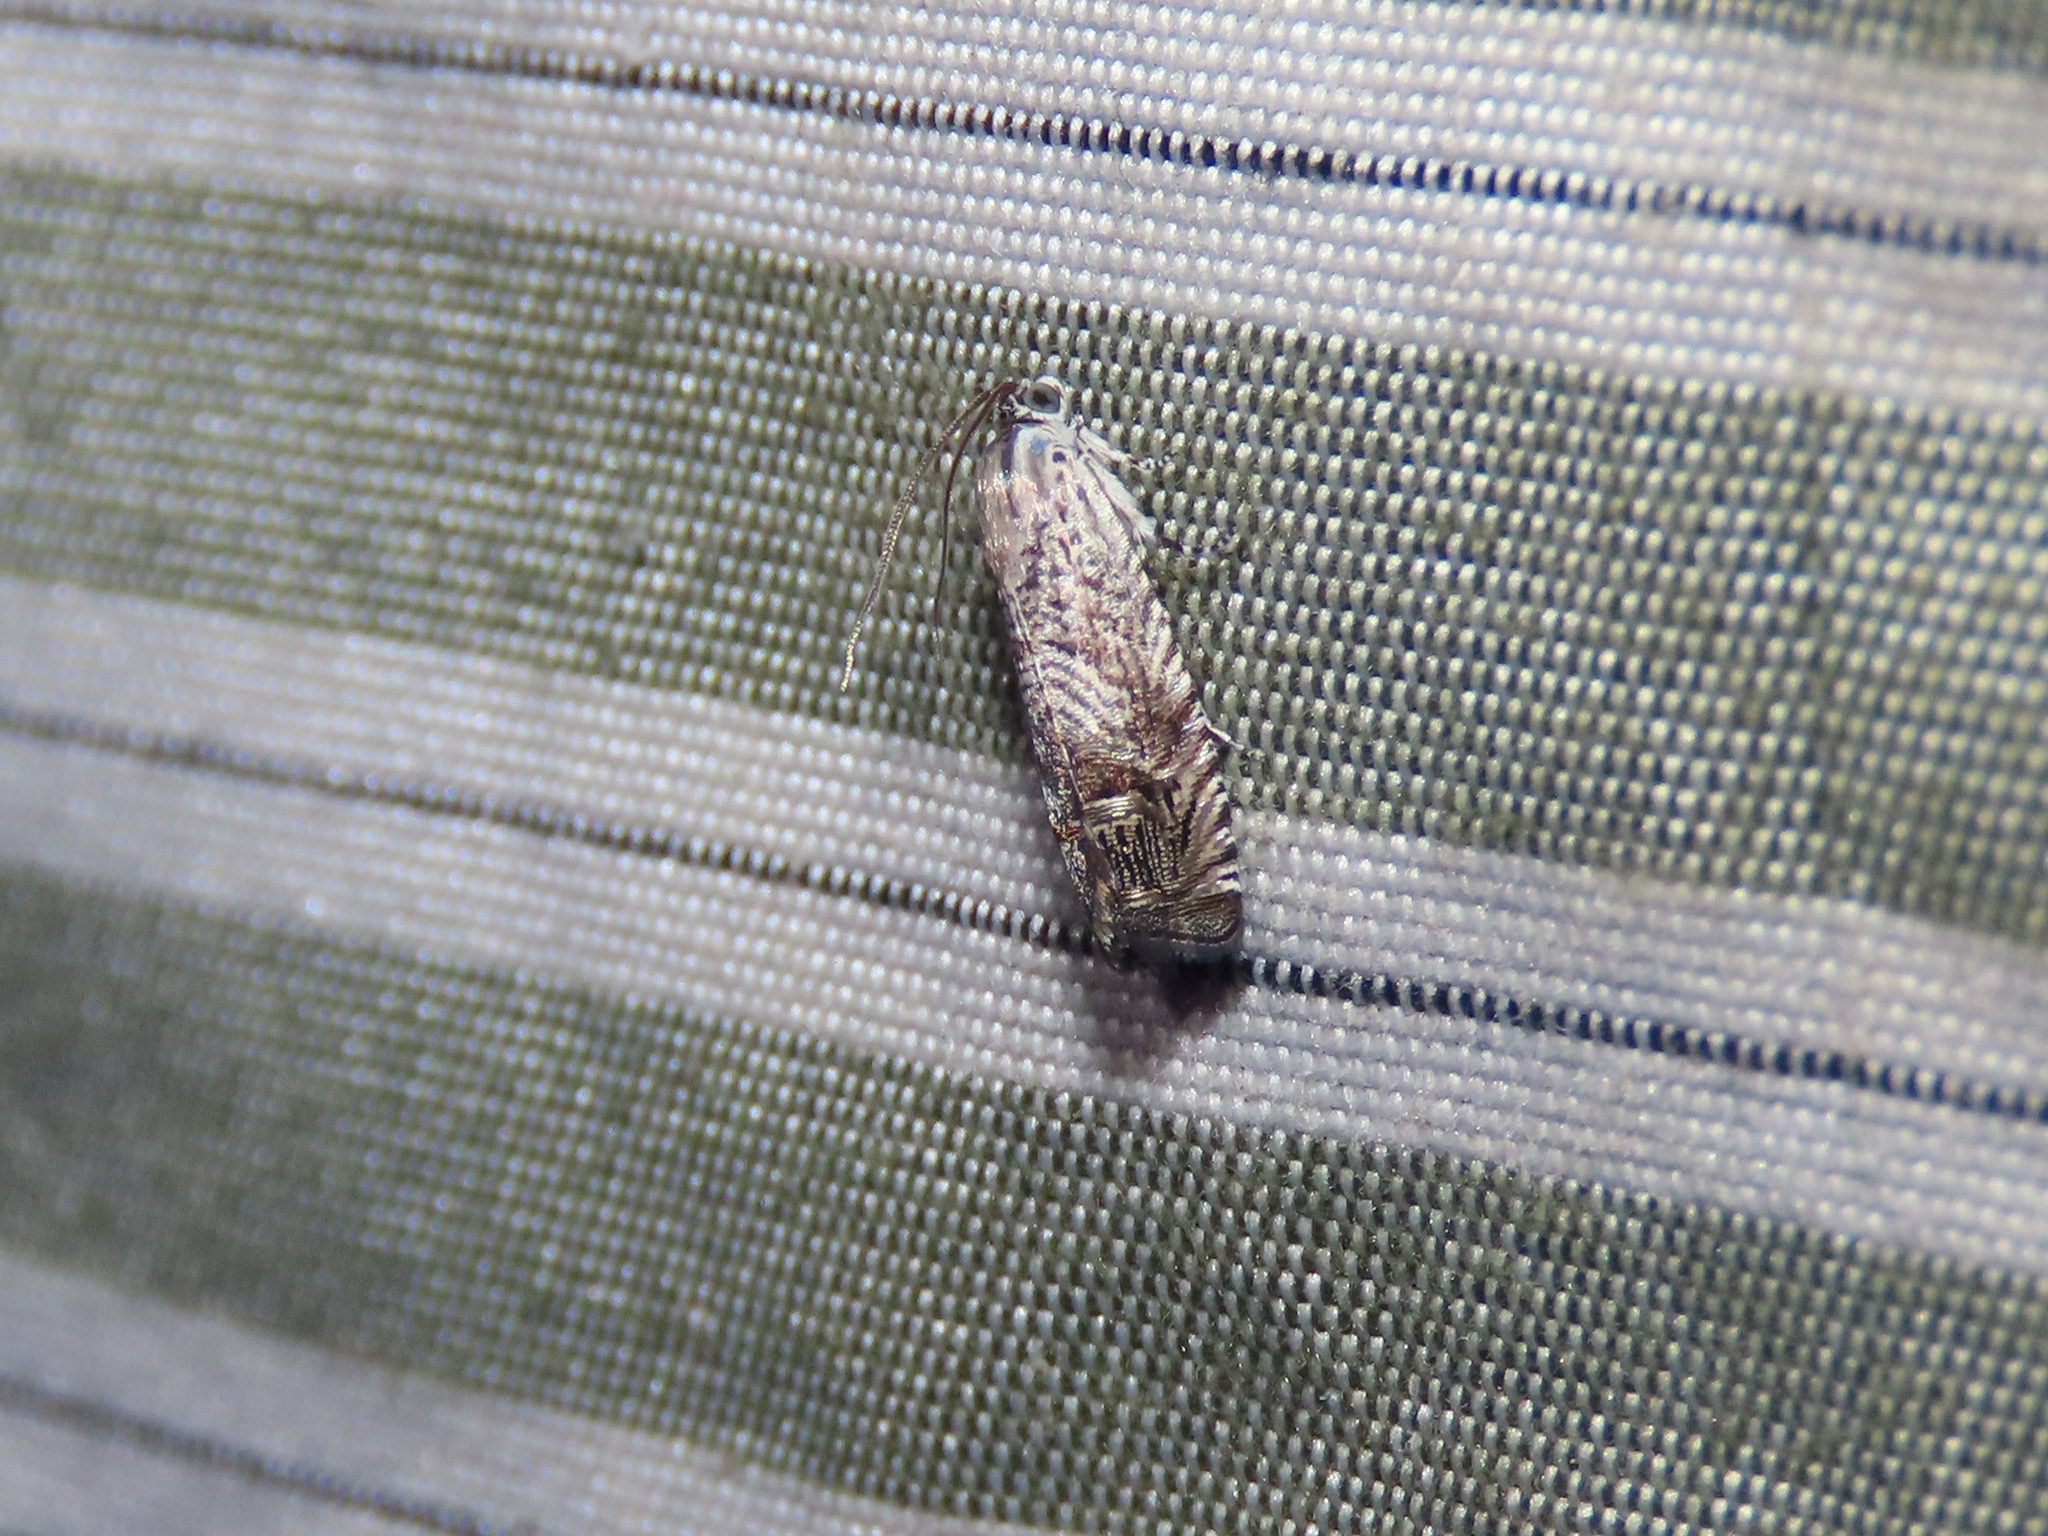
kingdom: Animalia
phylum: Arthropoda
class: Insecta
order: Lepidoptera
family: Tortricidae
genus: Ofatulena
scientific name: Ofatulena duodecemstriata
